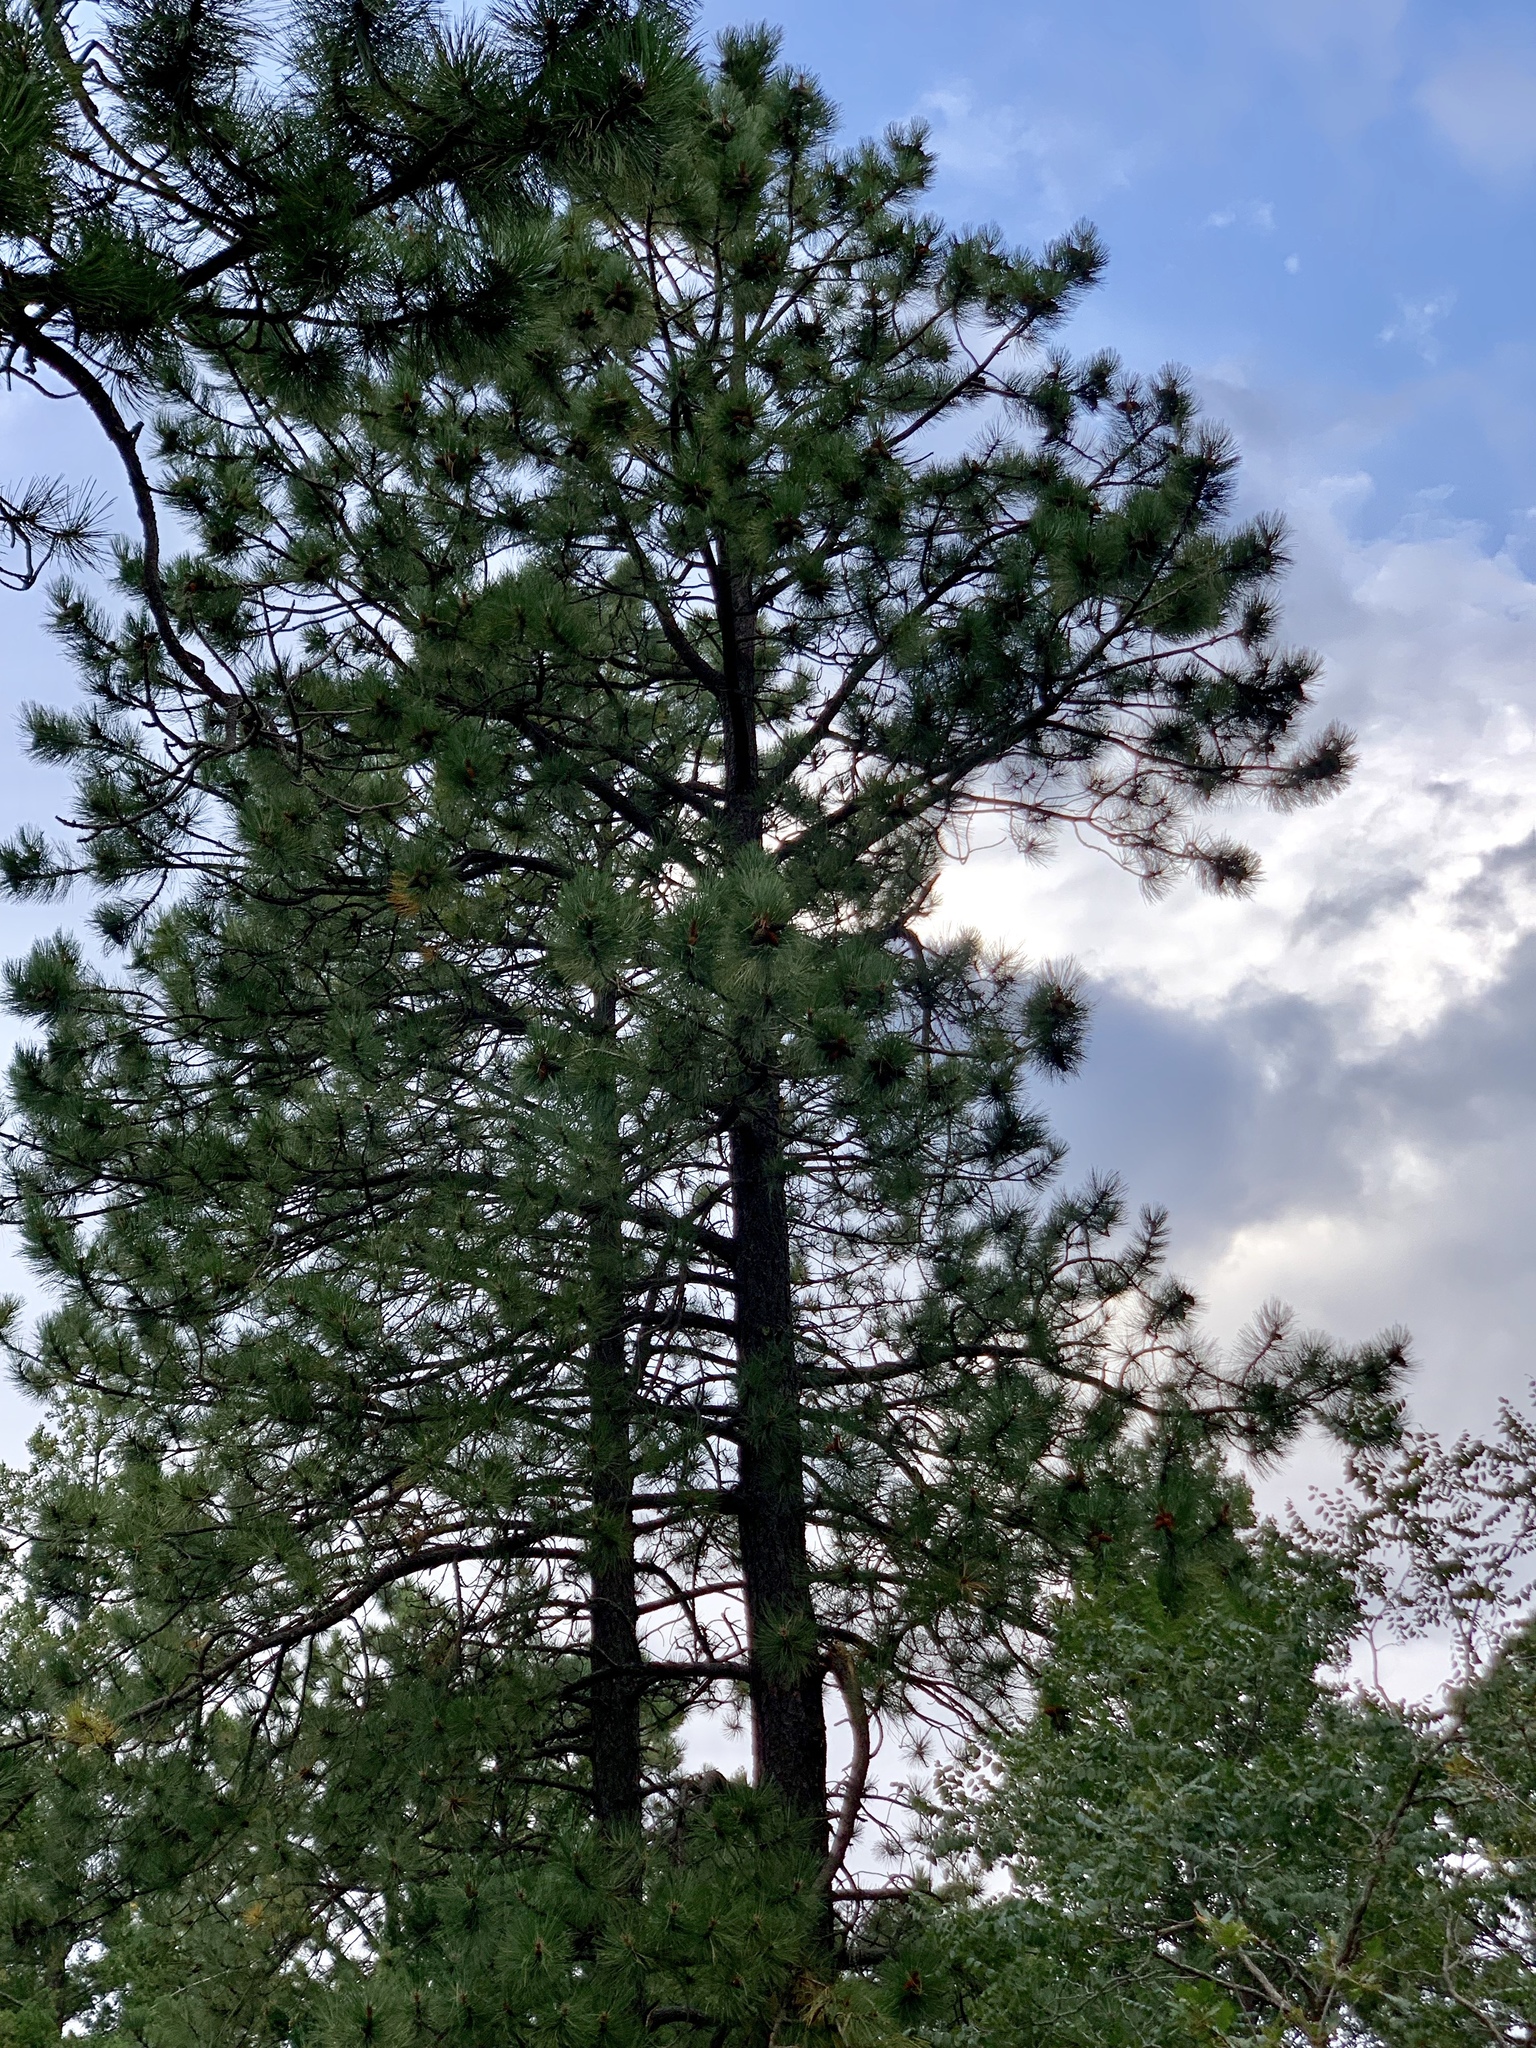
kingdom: Plantae
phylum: Tracheophyta
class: Pinopsida
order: Pinales
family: Pinaceae
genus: Pinus
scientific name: Pinus ponderosa
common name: Western yellow-pine
